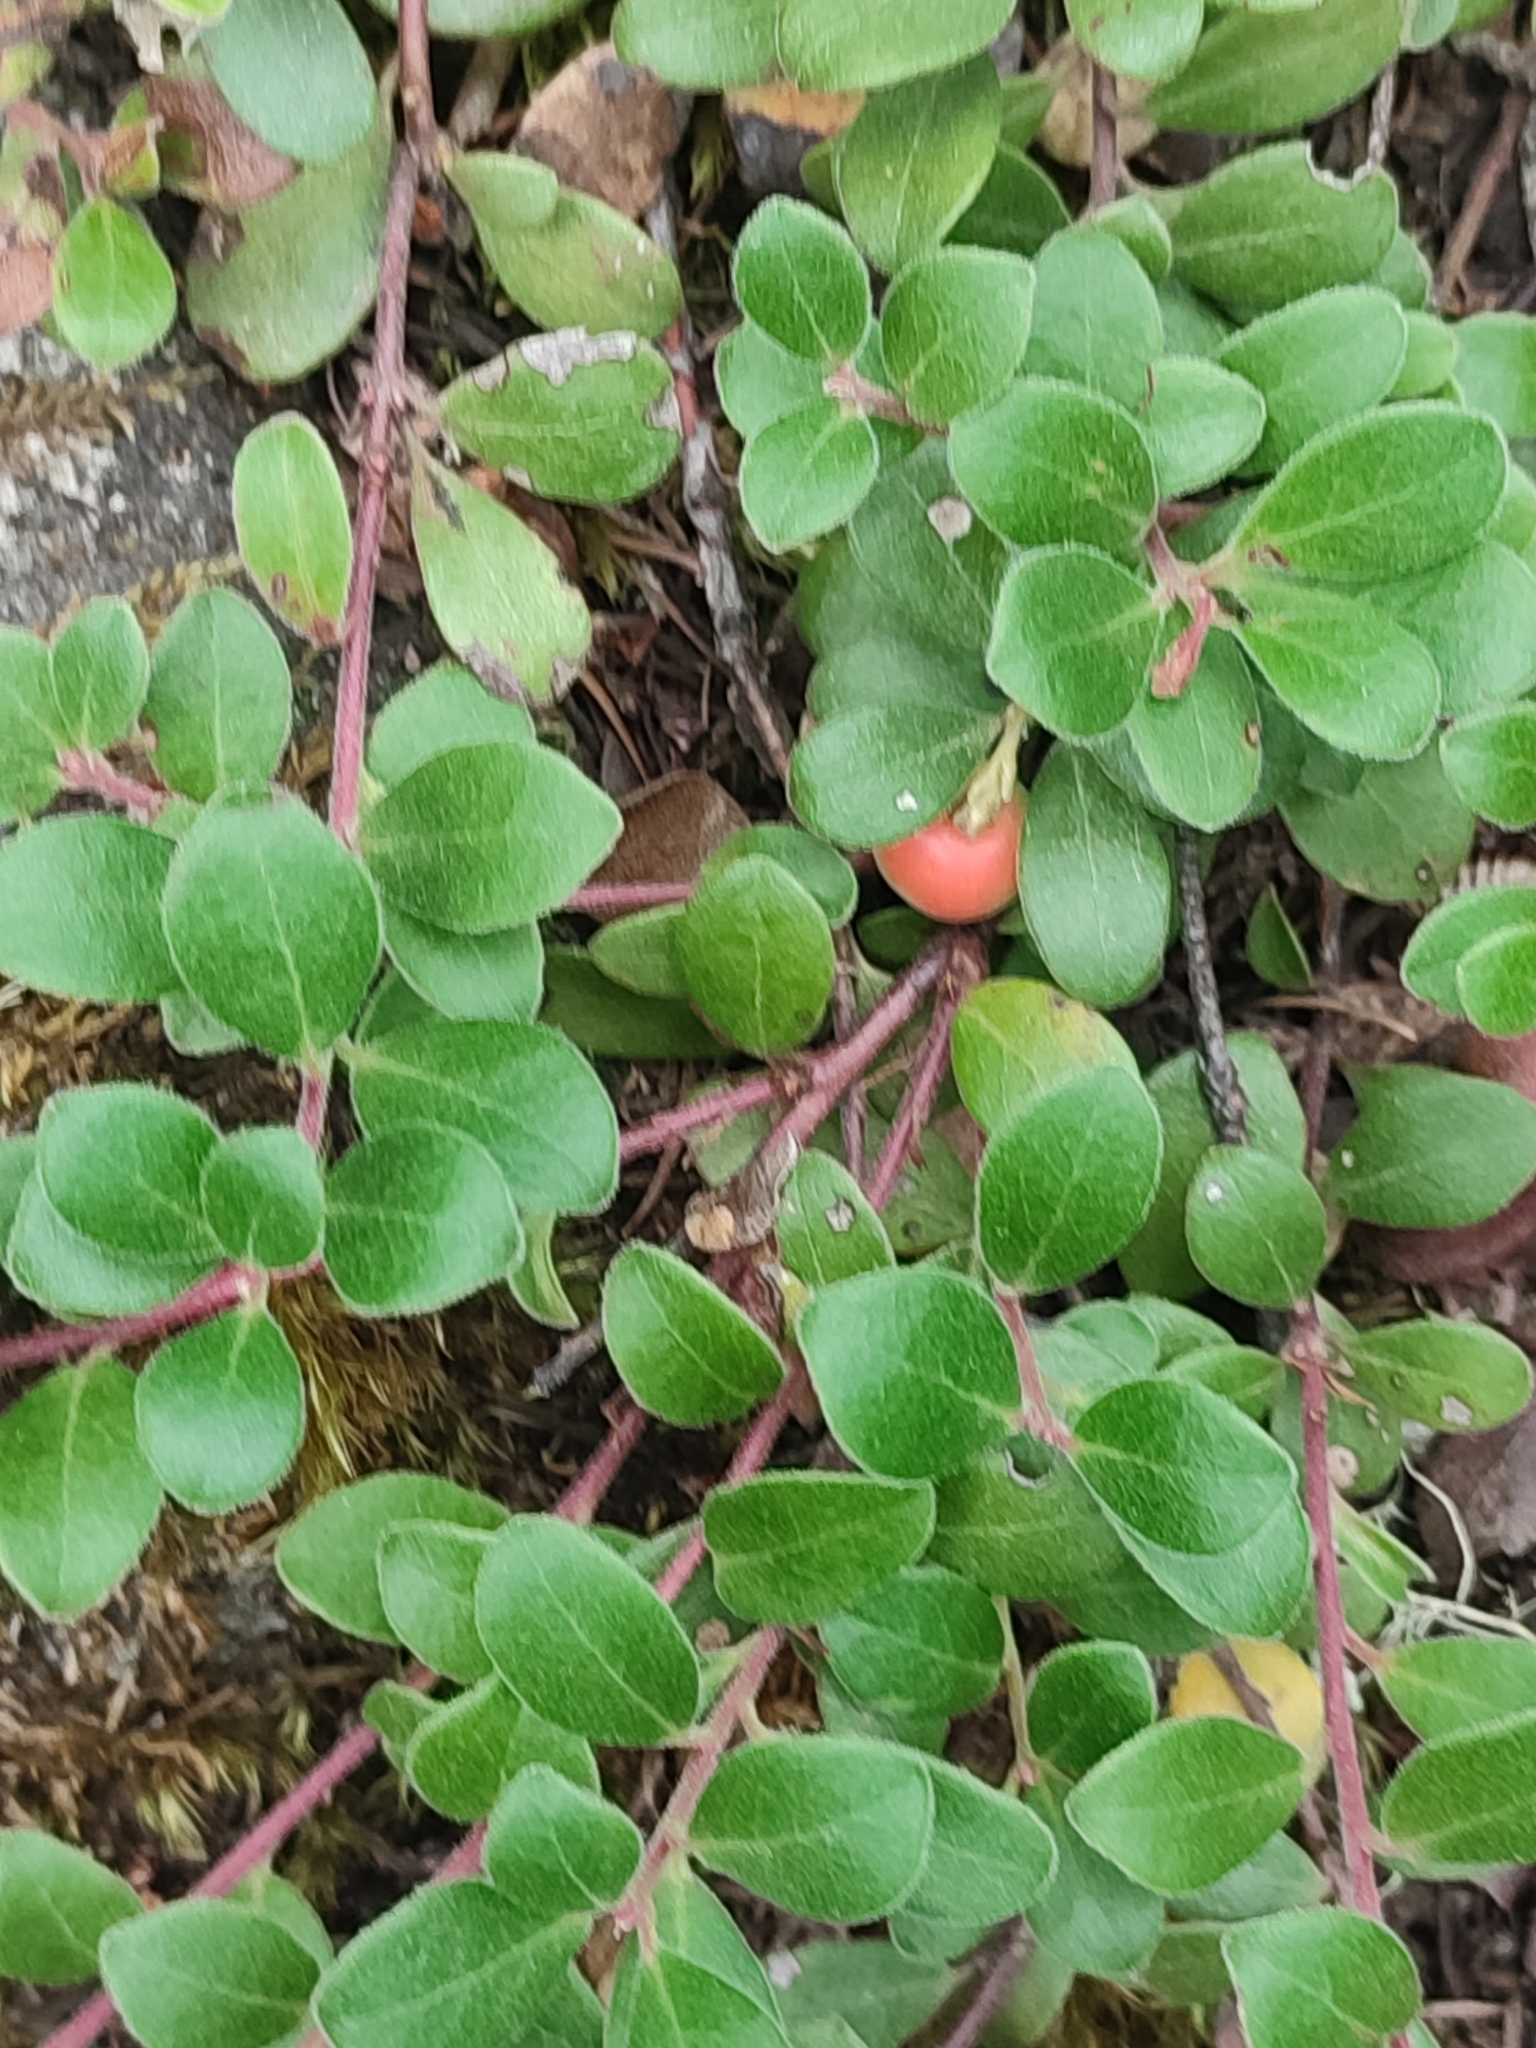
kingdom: Plantae
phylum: Tracheophyta
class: Magnoliopsida
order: Ericales
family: Ericaceae
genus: Arctostaphylos
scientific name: Arctostaphylos uva-ursi
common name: Bearberry
